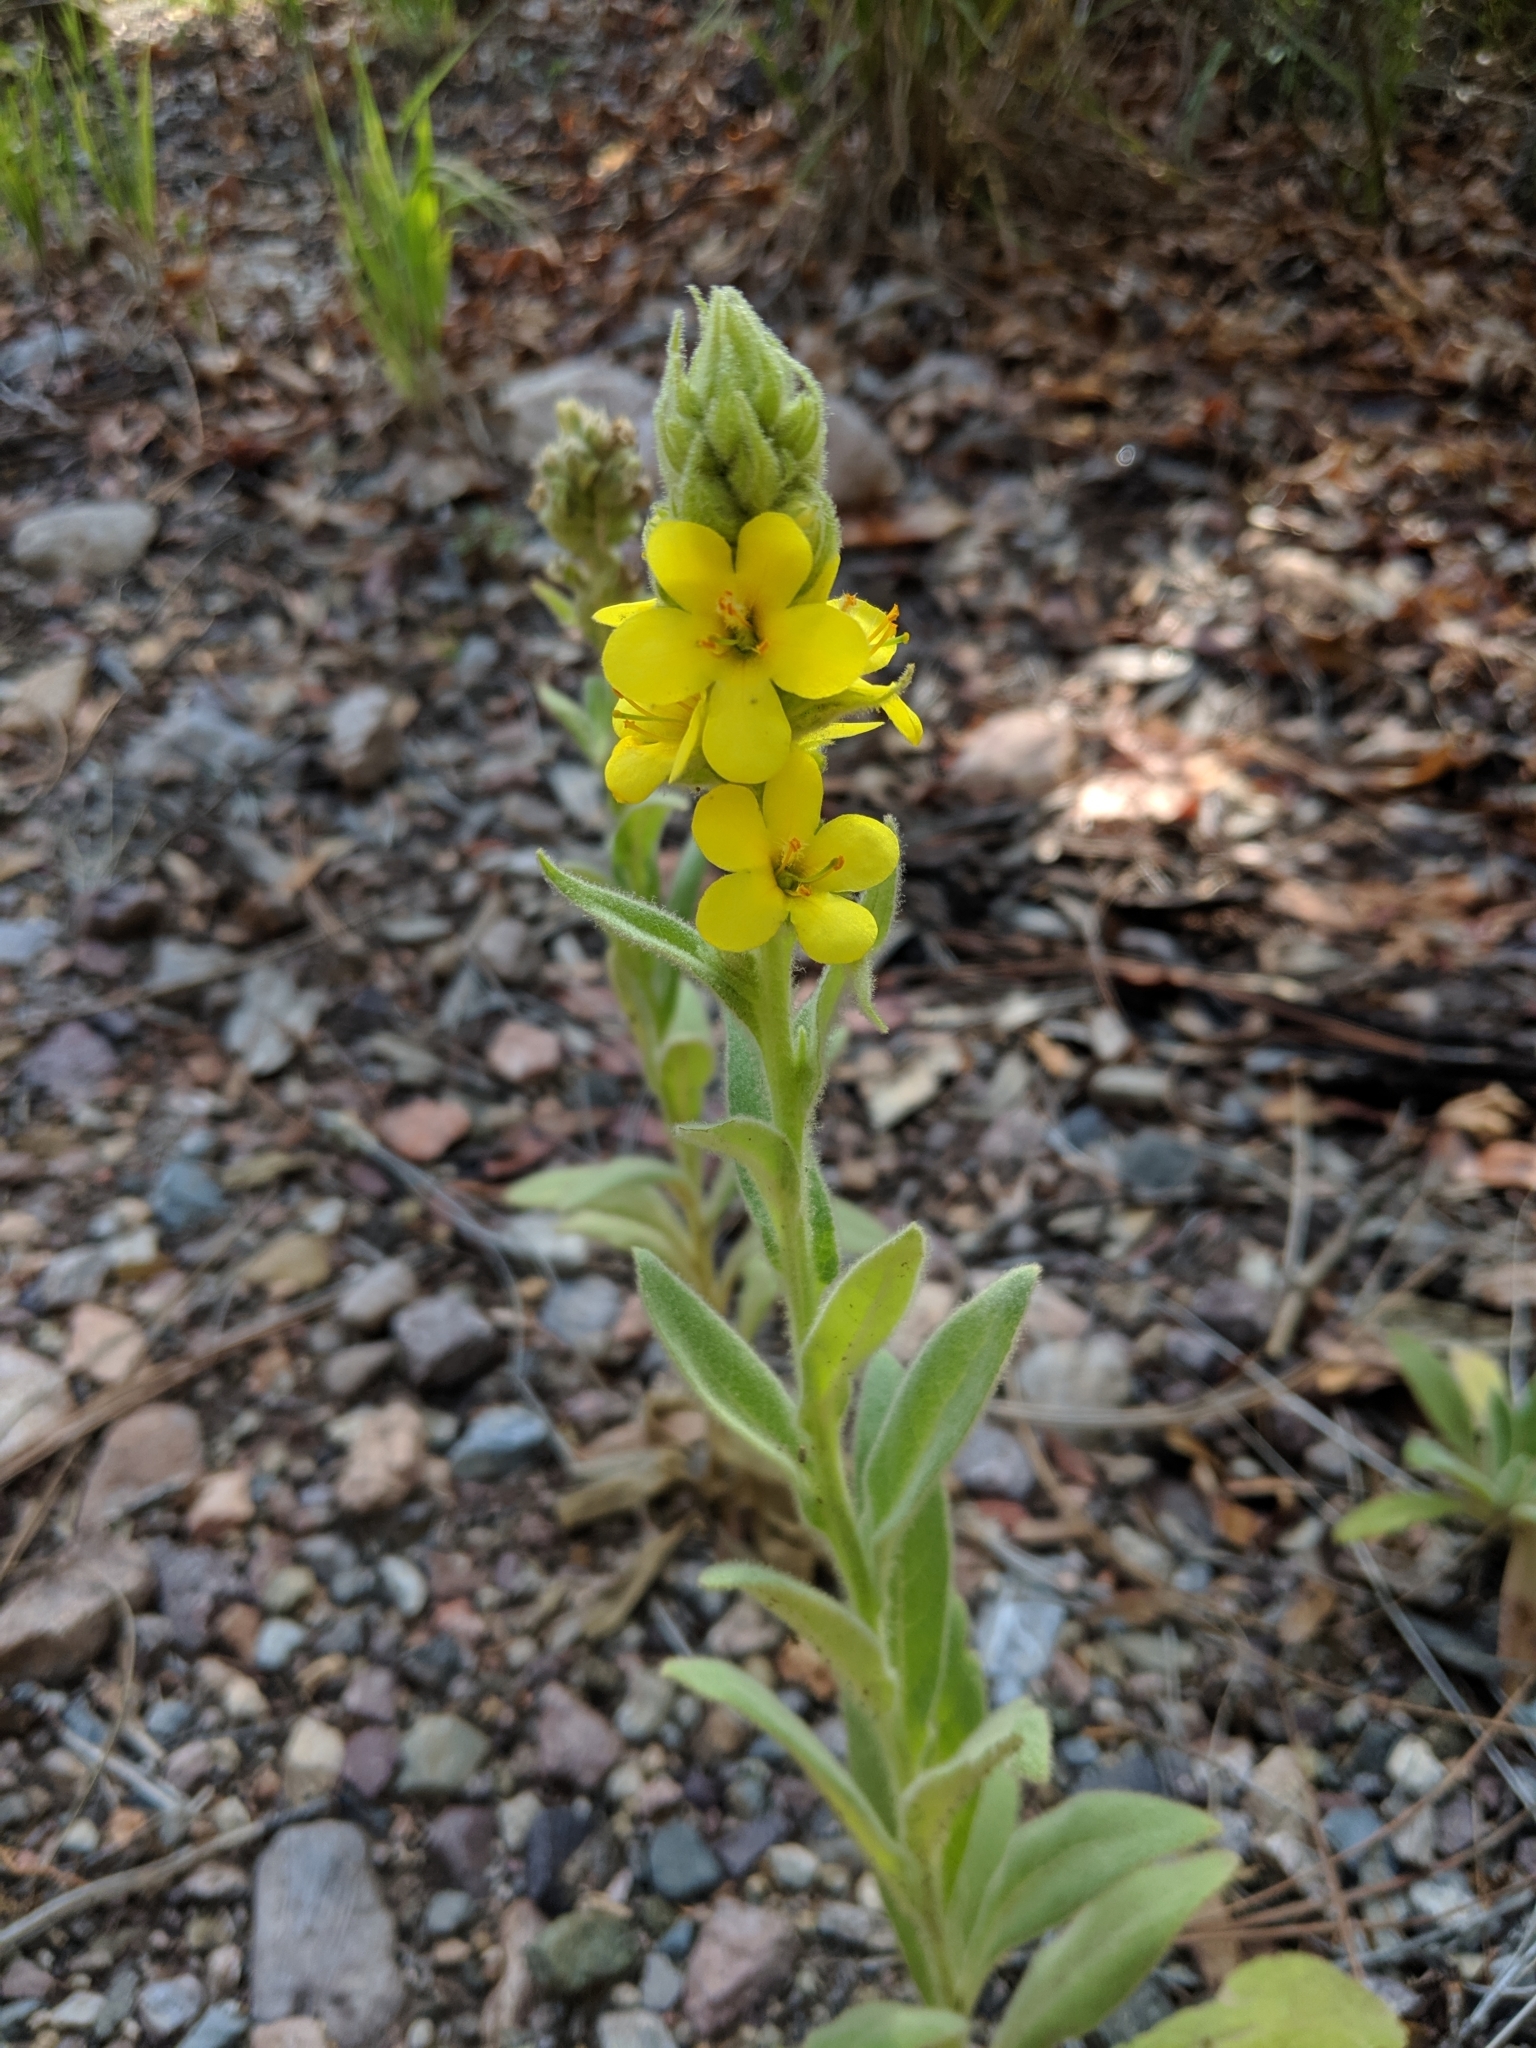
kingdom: Plantae
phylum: Tracheophyta
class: Magnoliopsida
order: Lamiales
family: Scrophulariaceae
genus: Verbascum
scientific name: Verbascum thapsus
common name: Common mullein
